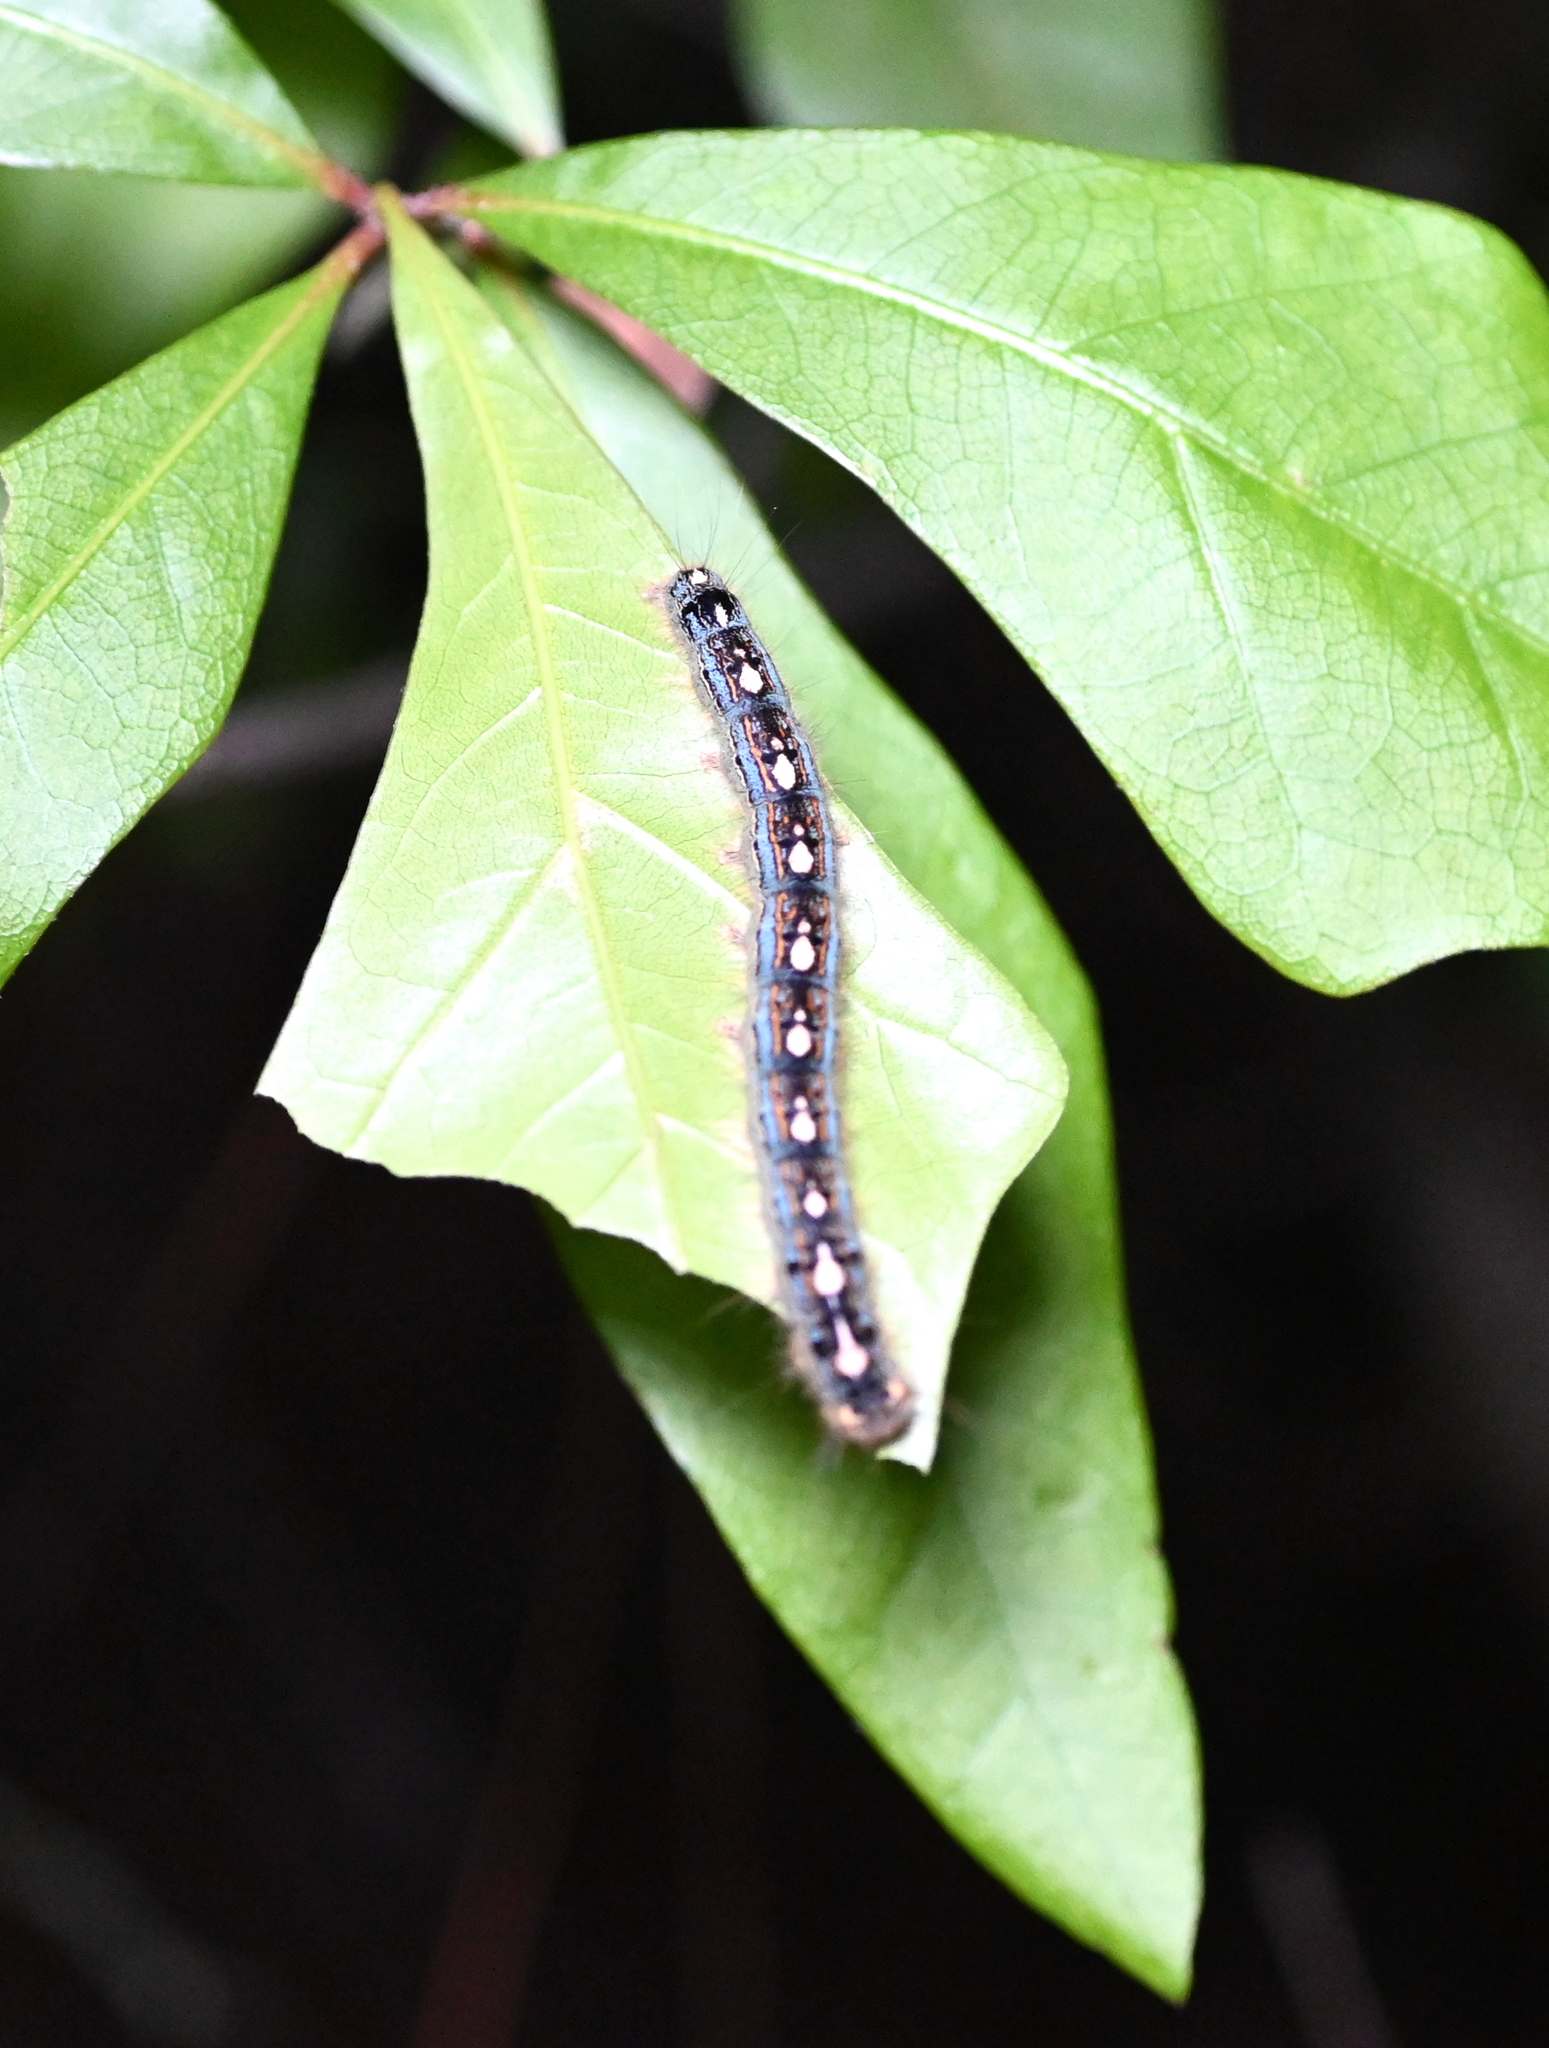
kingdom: Animalia
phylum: Arthropoda
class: Insecta
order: Lepidoptera
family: Lasiocampidae
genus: Malacosoma
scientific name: Malacosoma disstria
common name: Forest tent caterpillar
